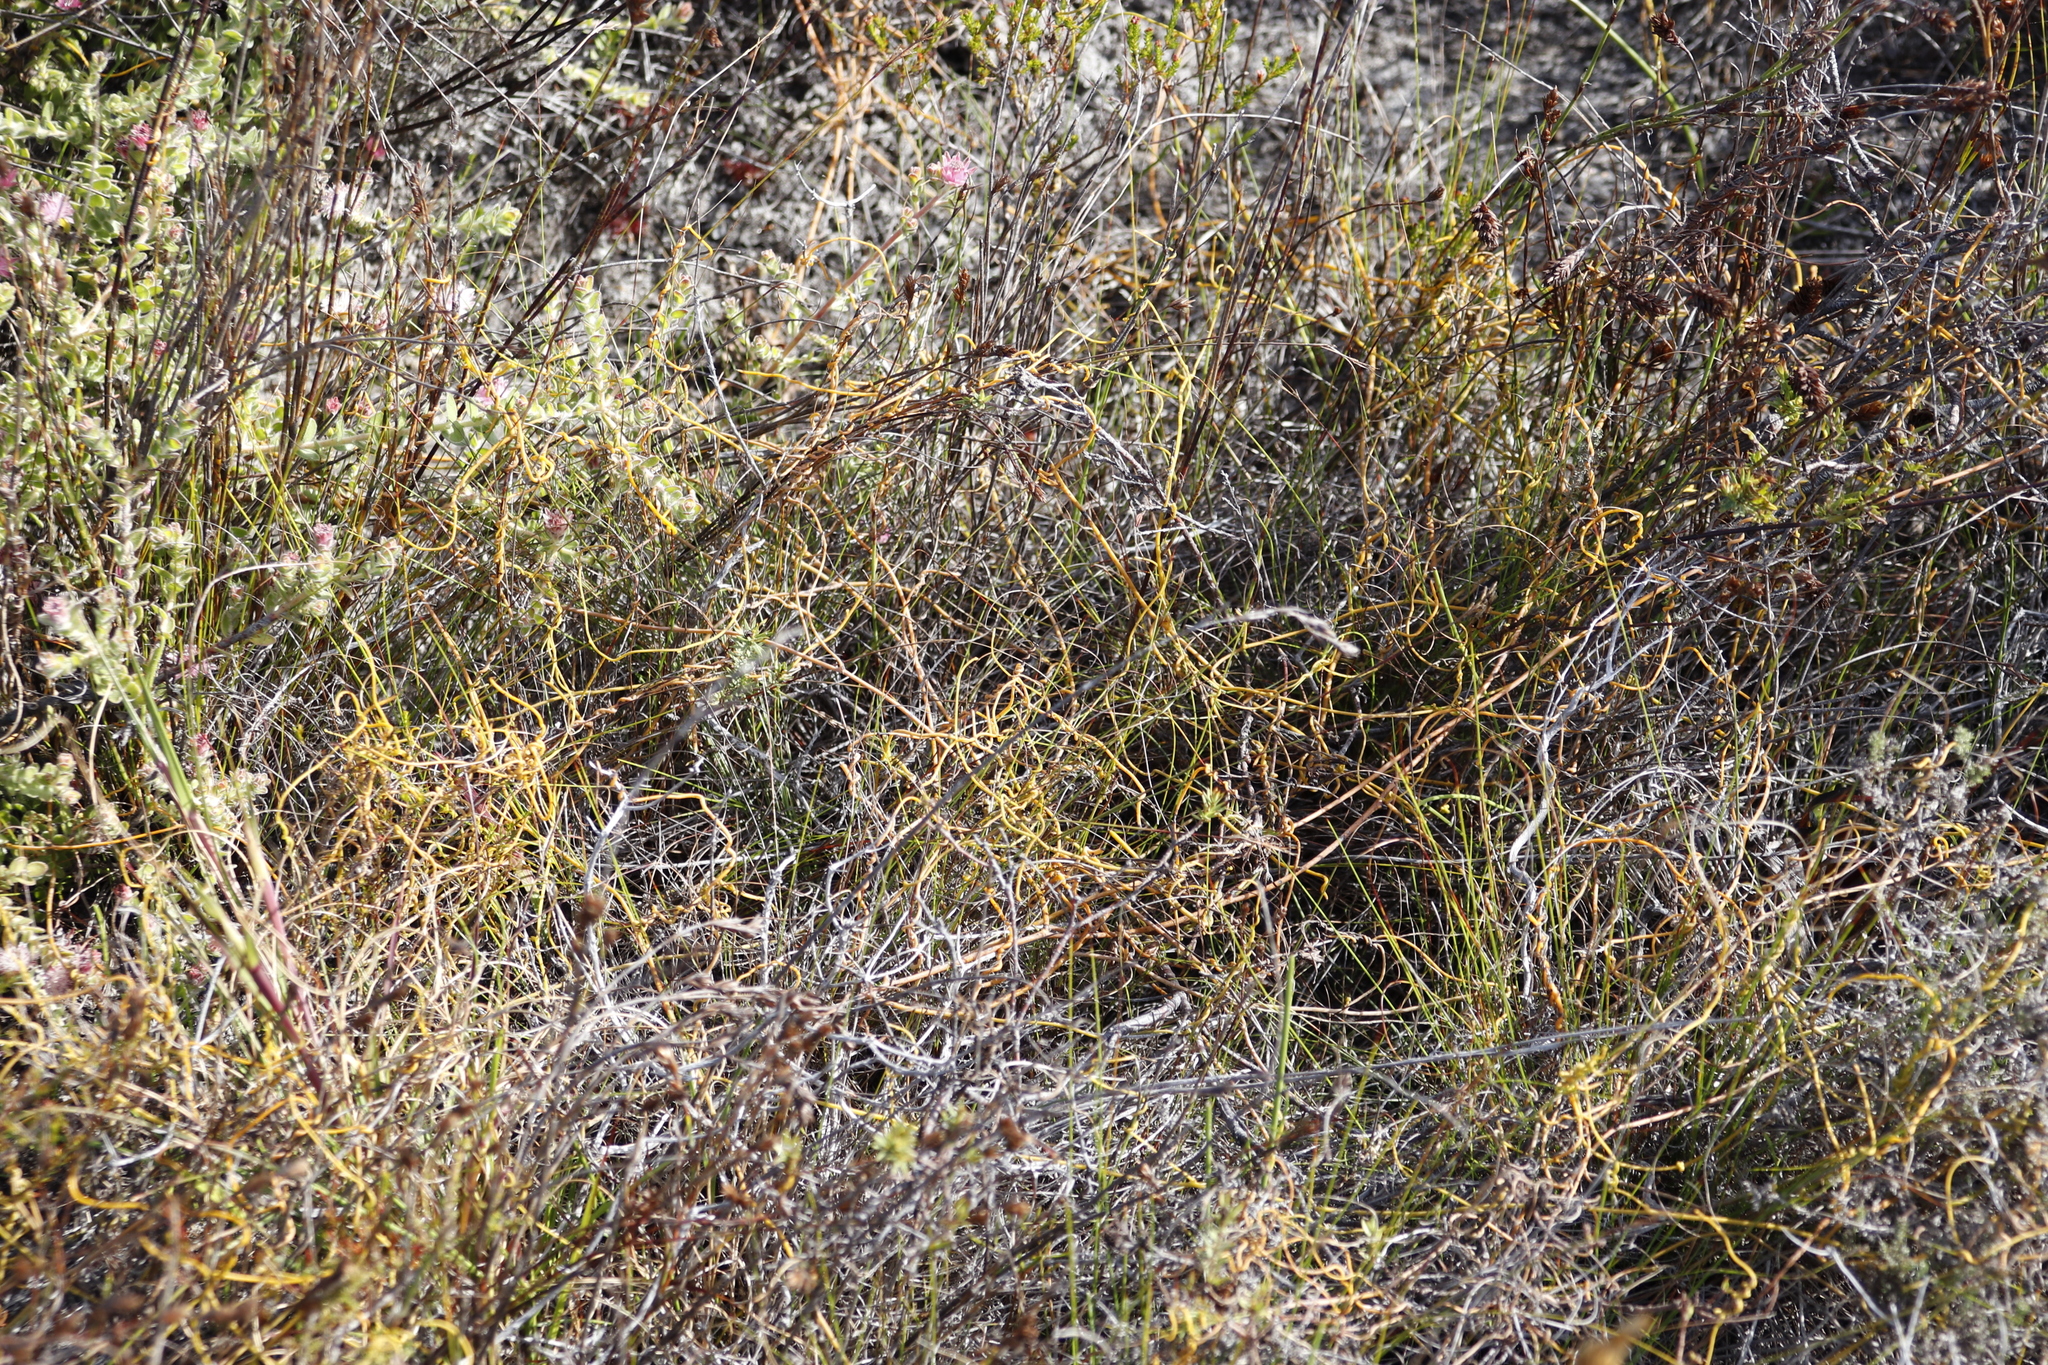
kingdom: Plantae
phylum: Tracheophyta
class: Magnoliopsida
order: Laurales
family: Lauraceae
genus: Cassytha
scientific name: Cassytha ciliolata
